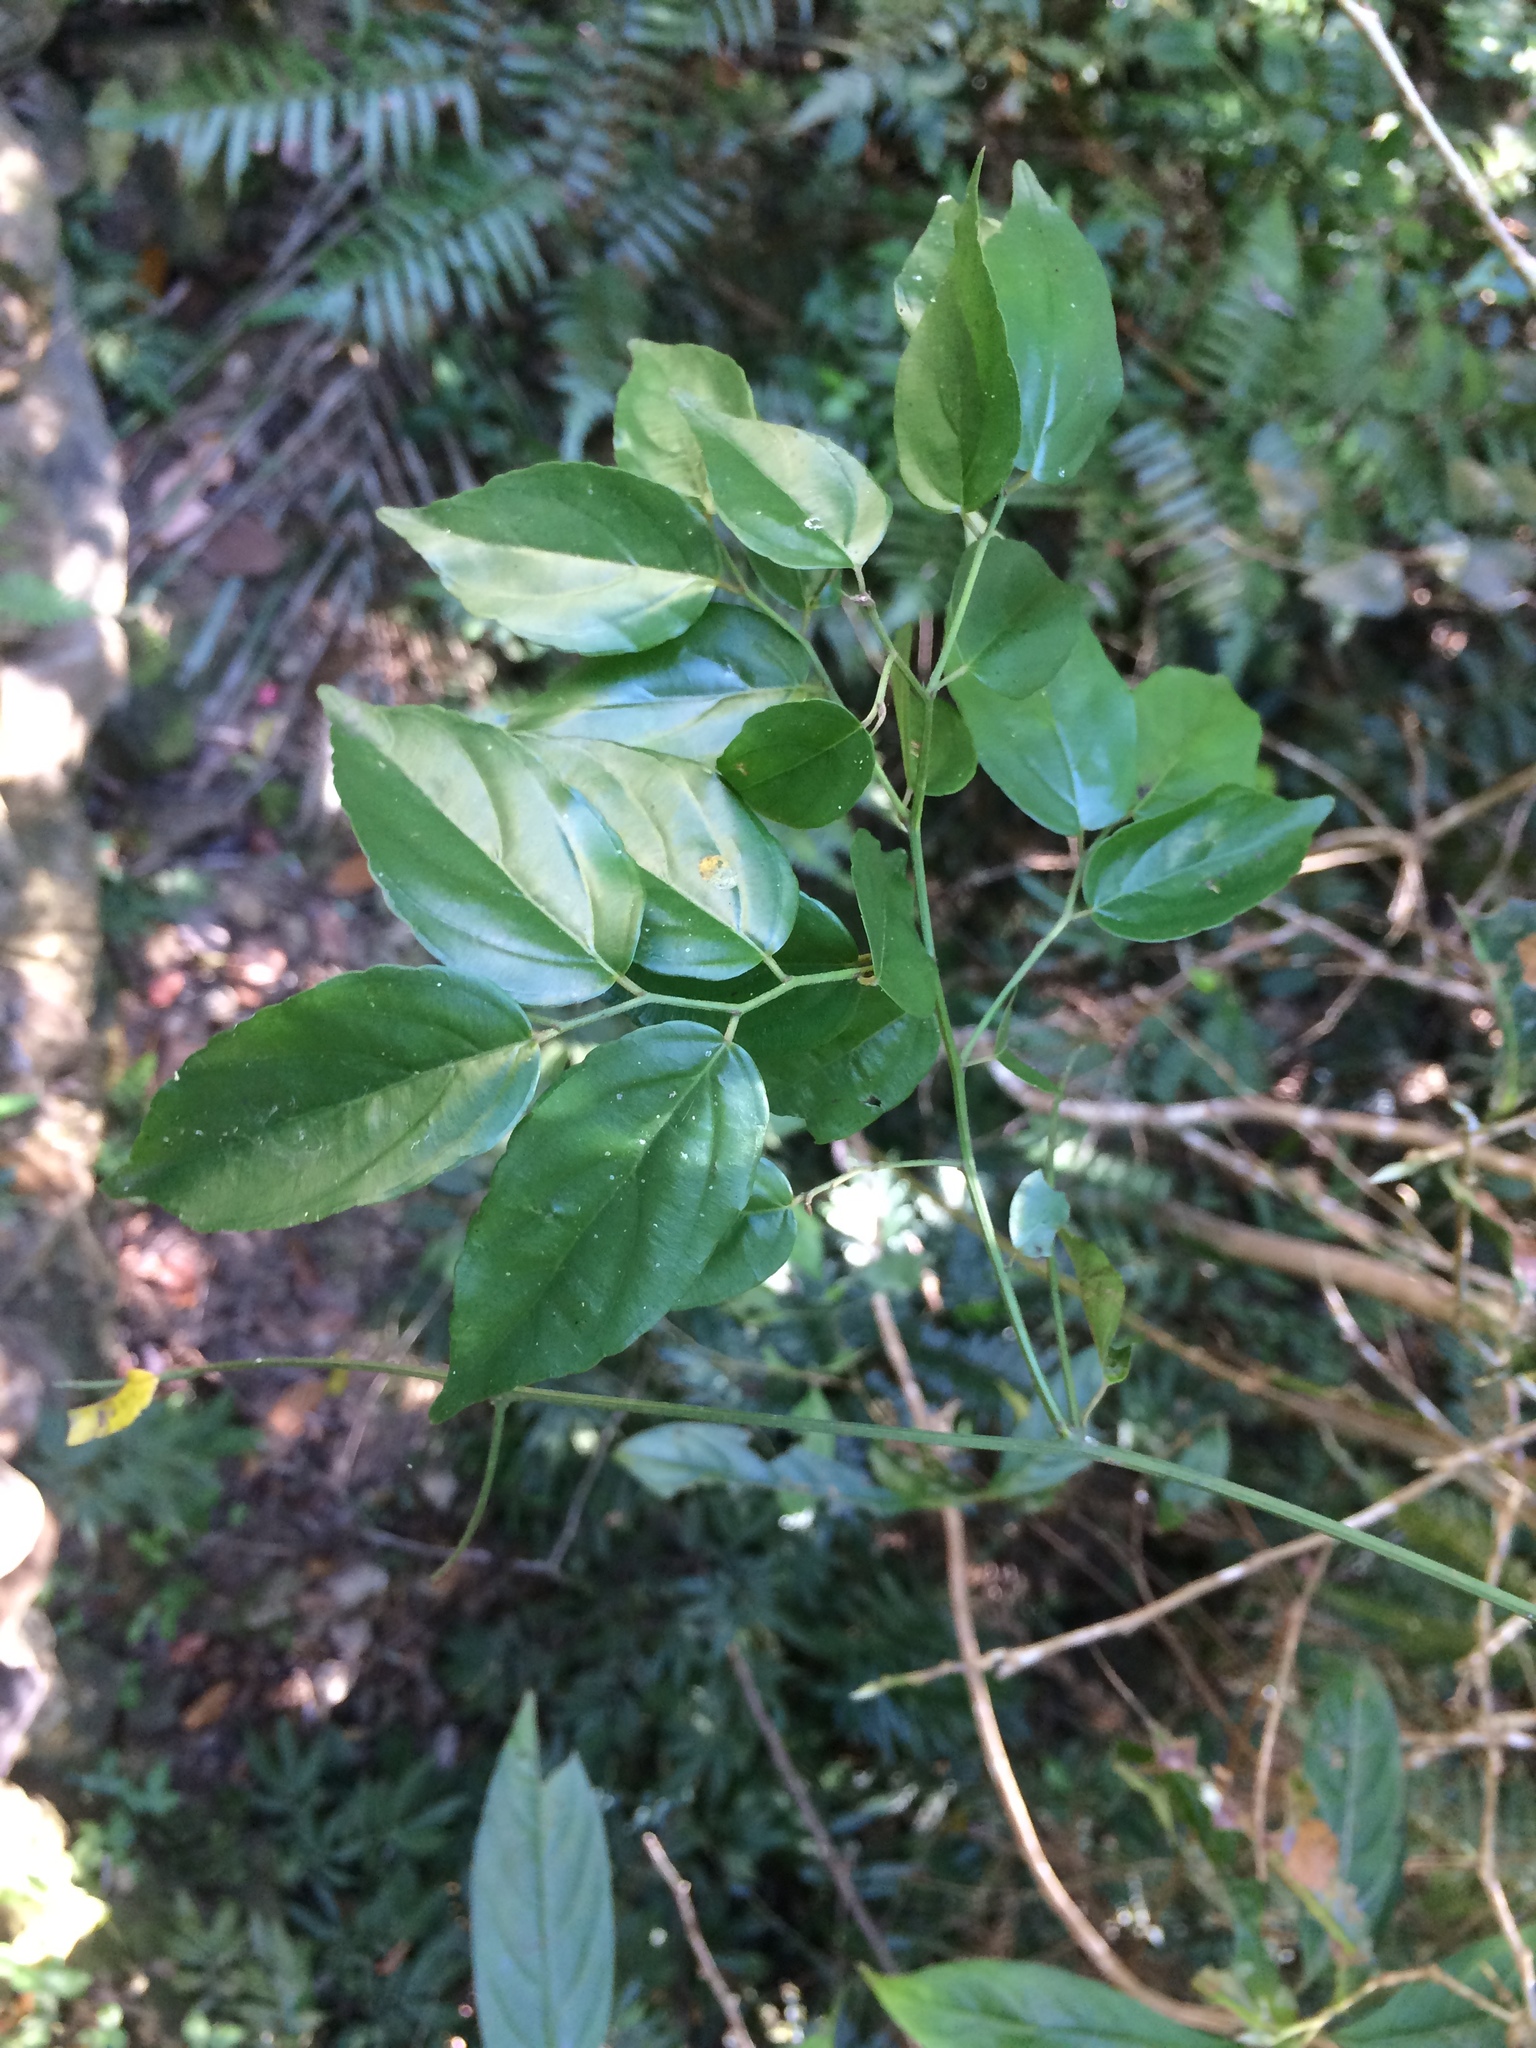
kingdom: Plantae
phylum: Tracheophyta
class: Magnoliopsida
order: Rosales
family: Rhamnaceae
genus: Ventilago
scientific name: Ventilago leiocarpa
